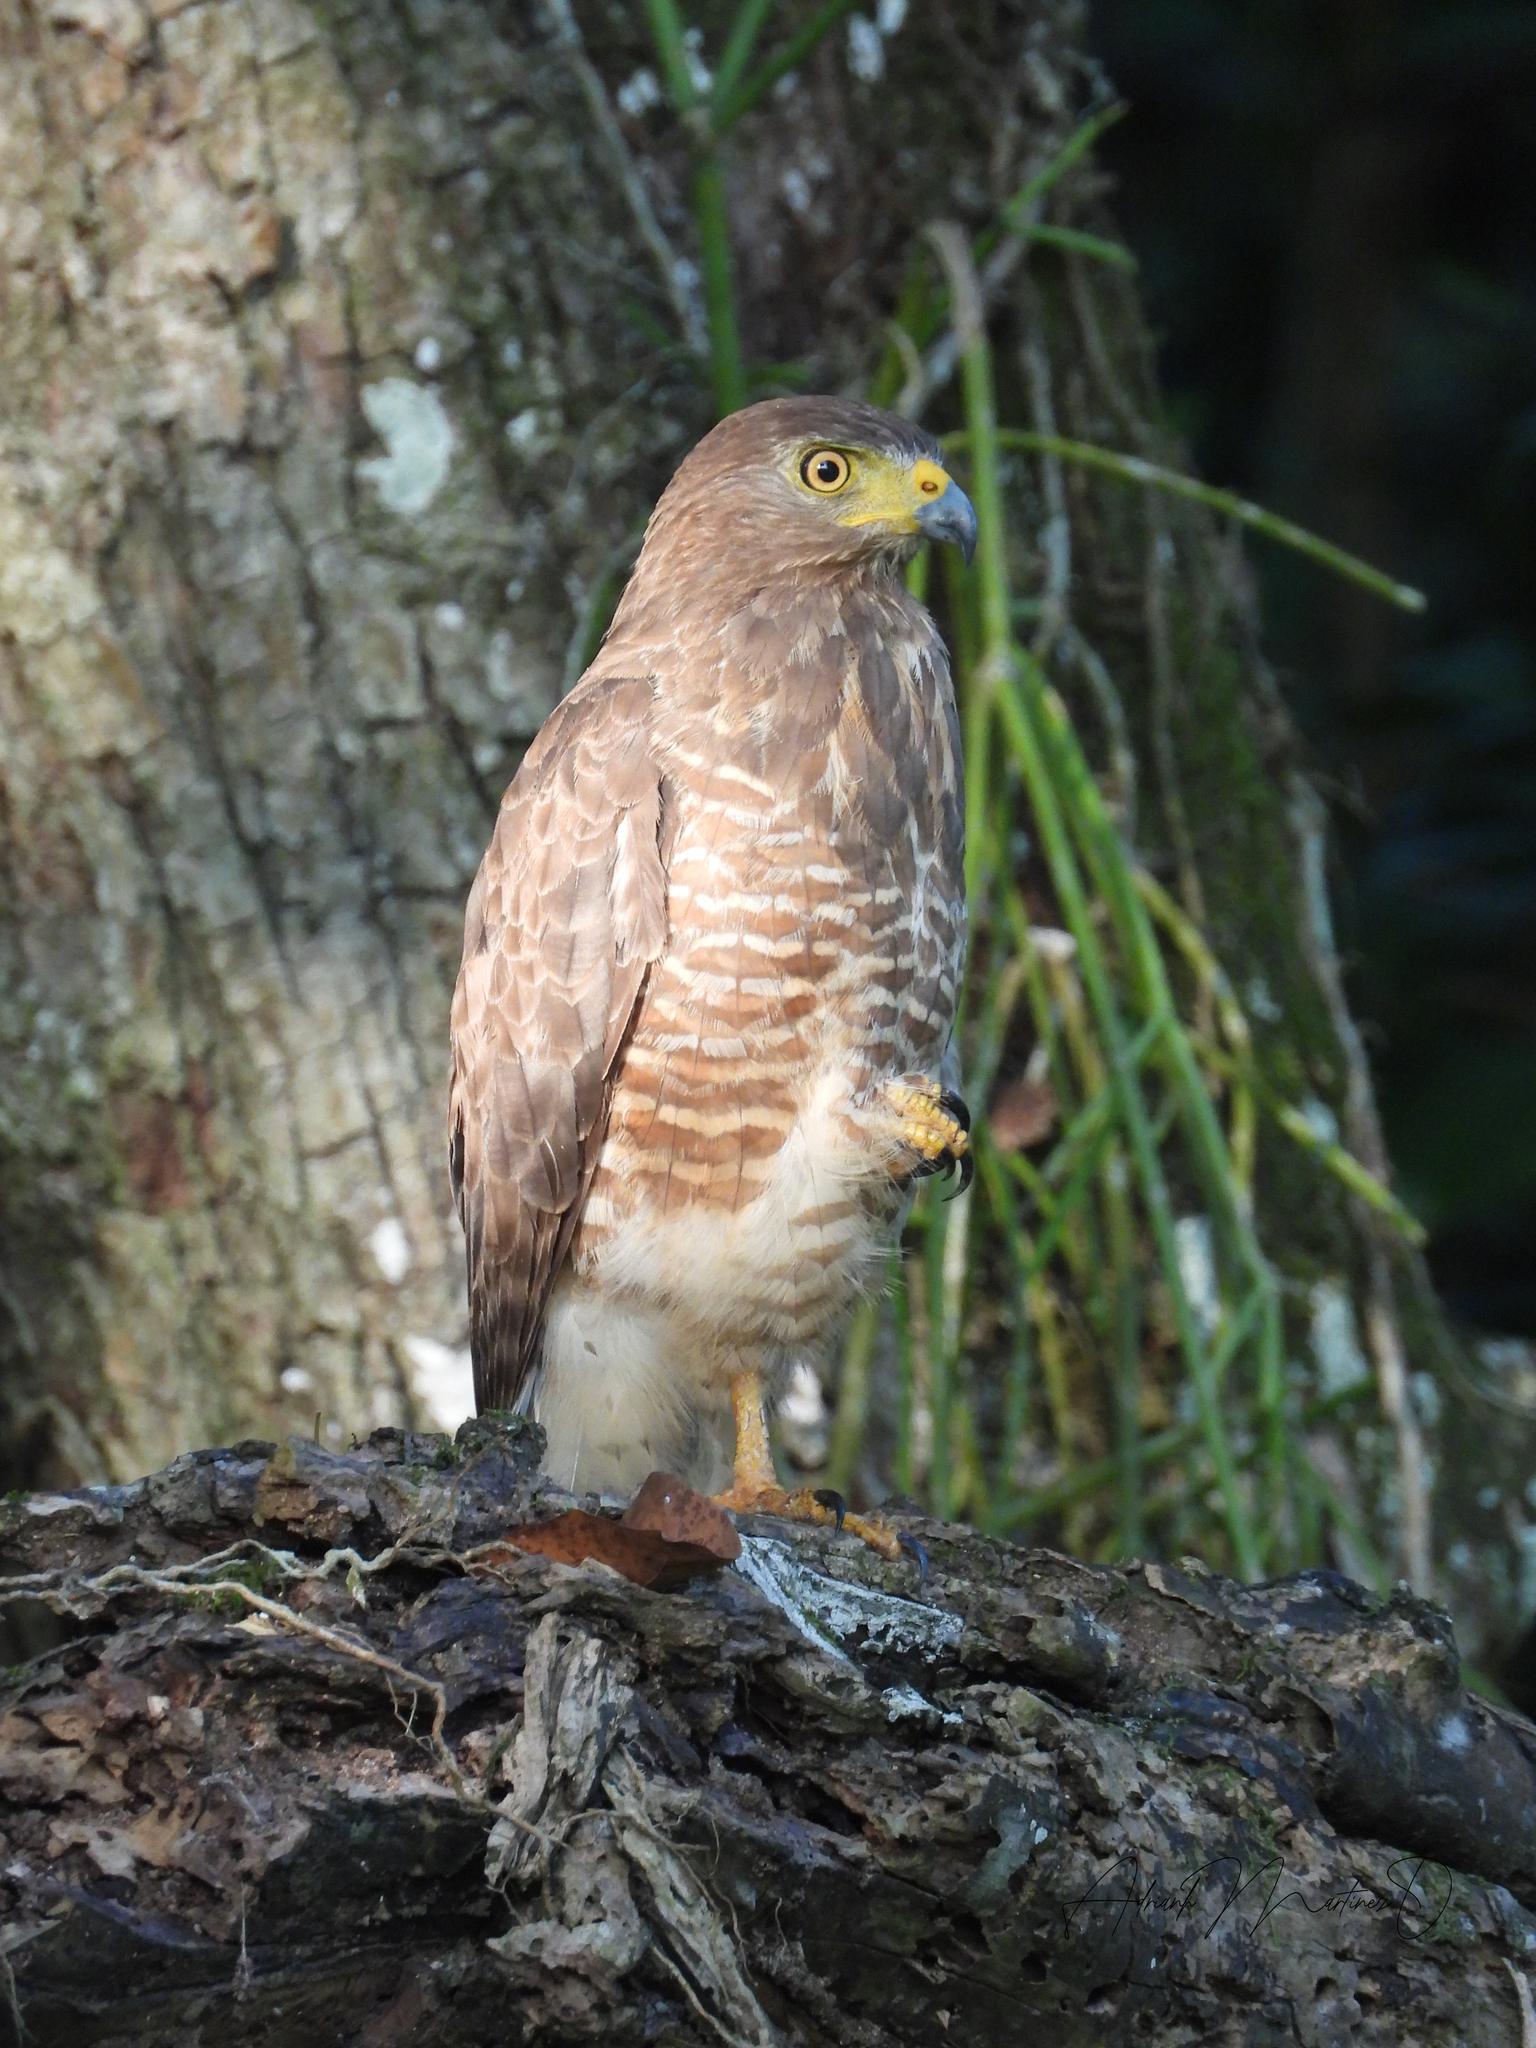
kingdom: Animalia
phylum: Chordata
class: Aves
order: Accipitriformes
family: Accipitridae
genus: Rupornis
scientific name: Rupornis magnirostris
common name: Roadside hawk
